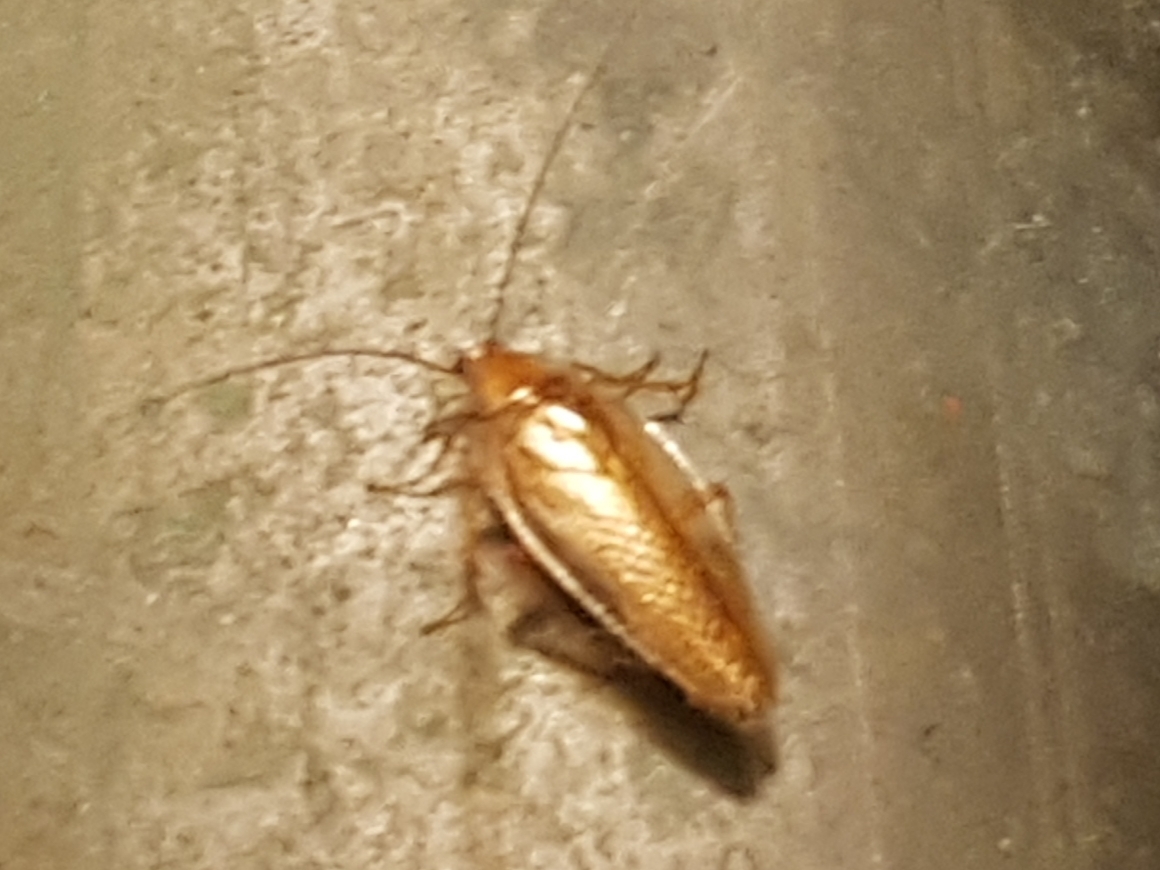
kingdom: Animalia
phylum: Arthropoda
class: Insecta
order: Blattodea
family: Ectobiidae
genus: Ectobius
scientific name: Ectobius vittiventris
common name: Garden cockroach
